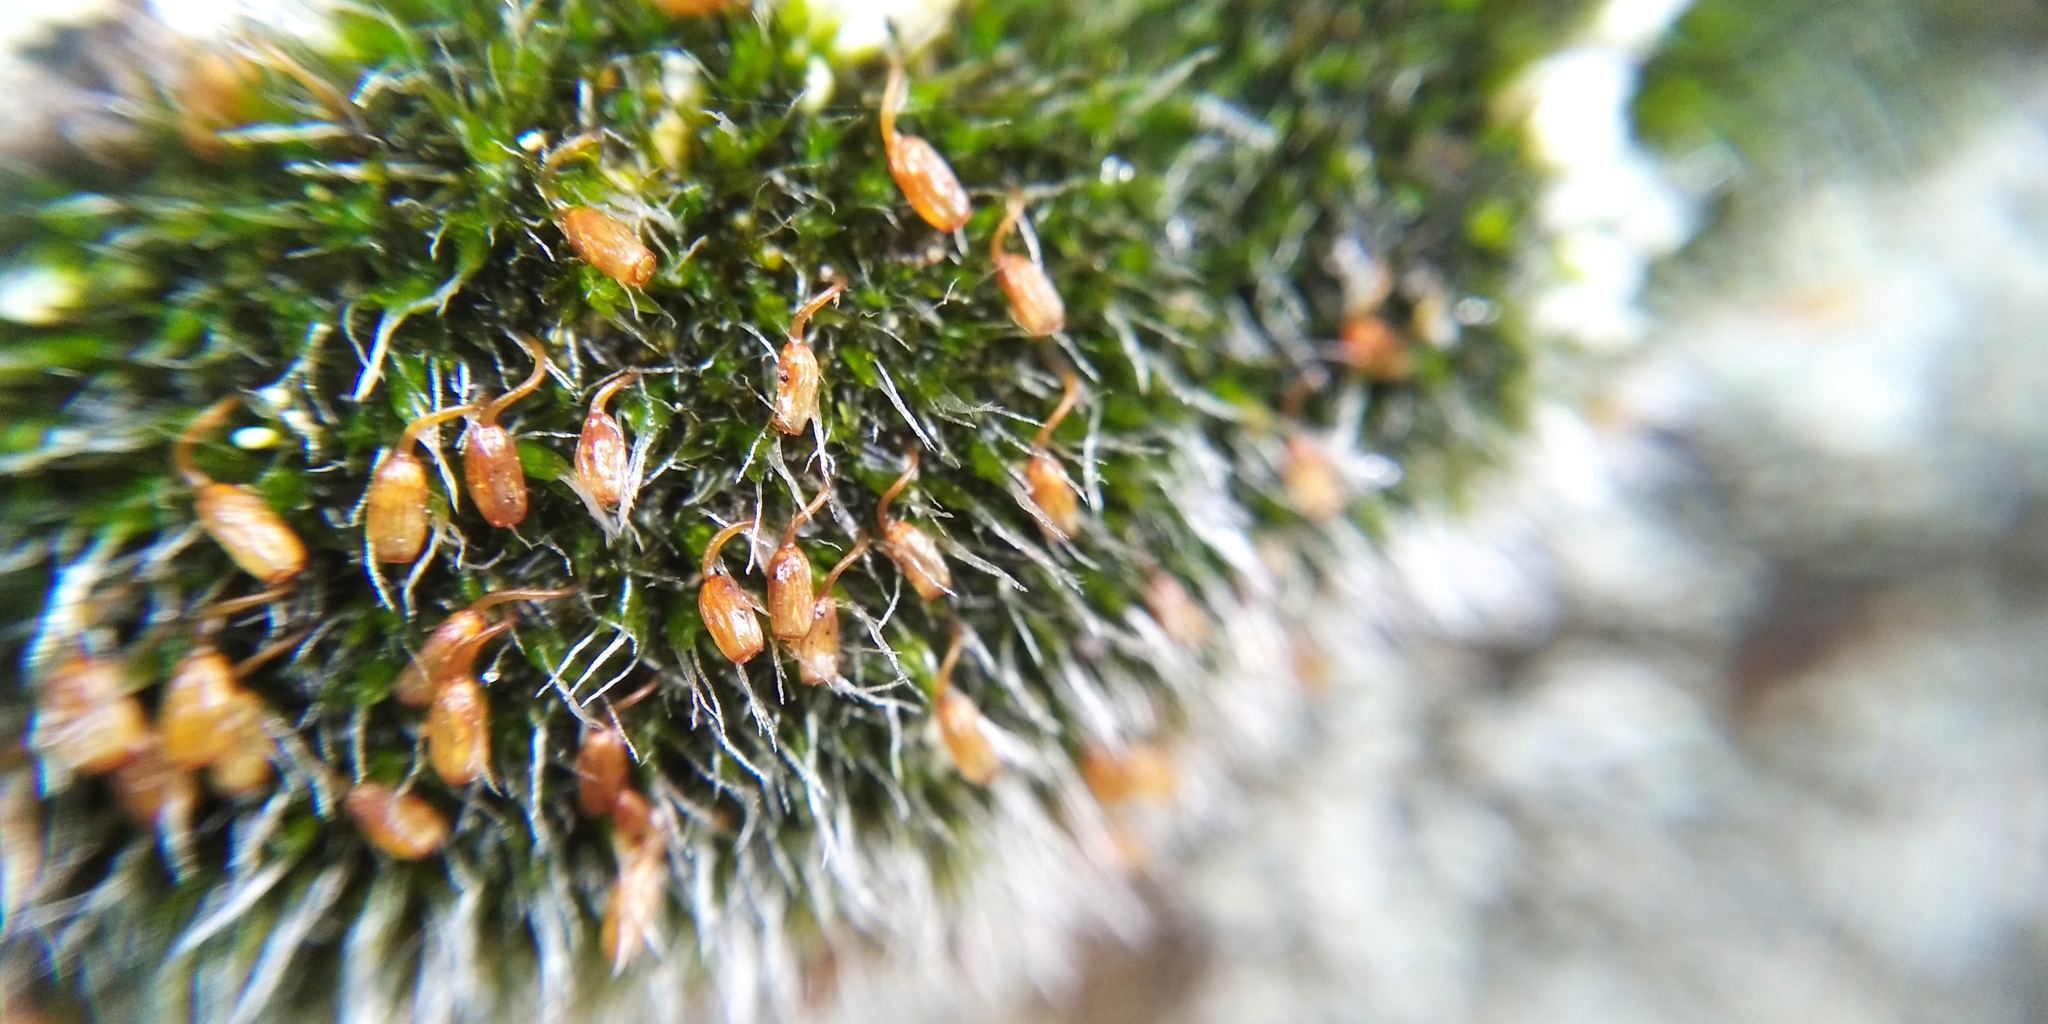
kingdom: Plantae
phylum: Bryophyta
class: Bryopsida
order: Grimmiales
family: Grimmiaceae
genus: Grimmia
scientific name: Grimmia pulvinata
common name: Grey-cushioned grimmia
